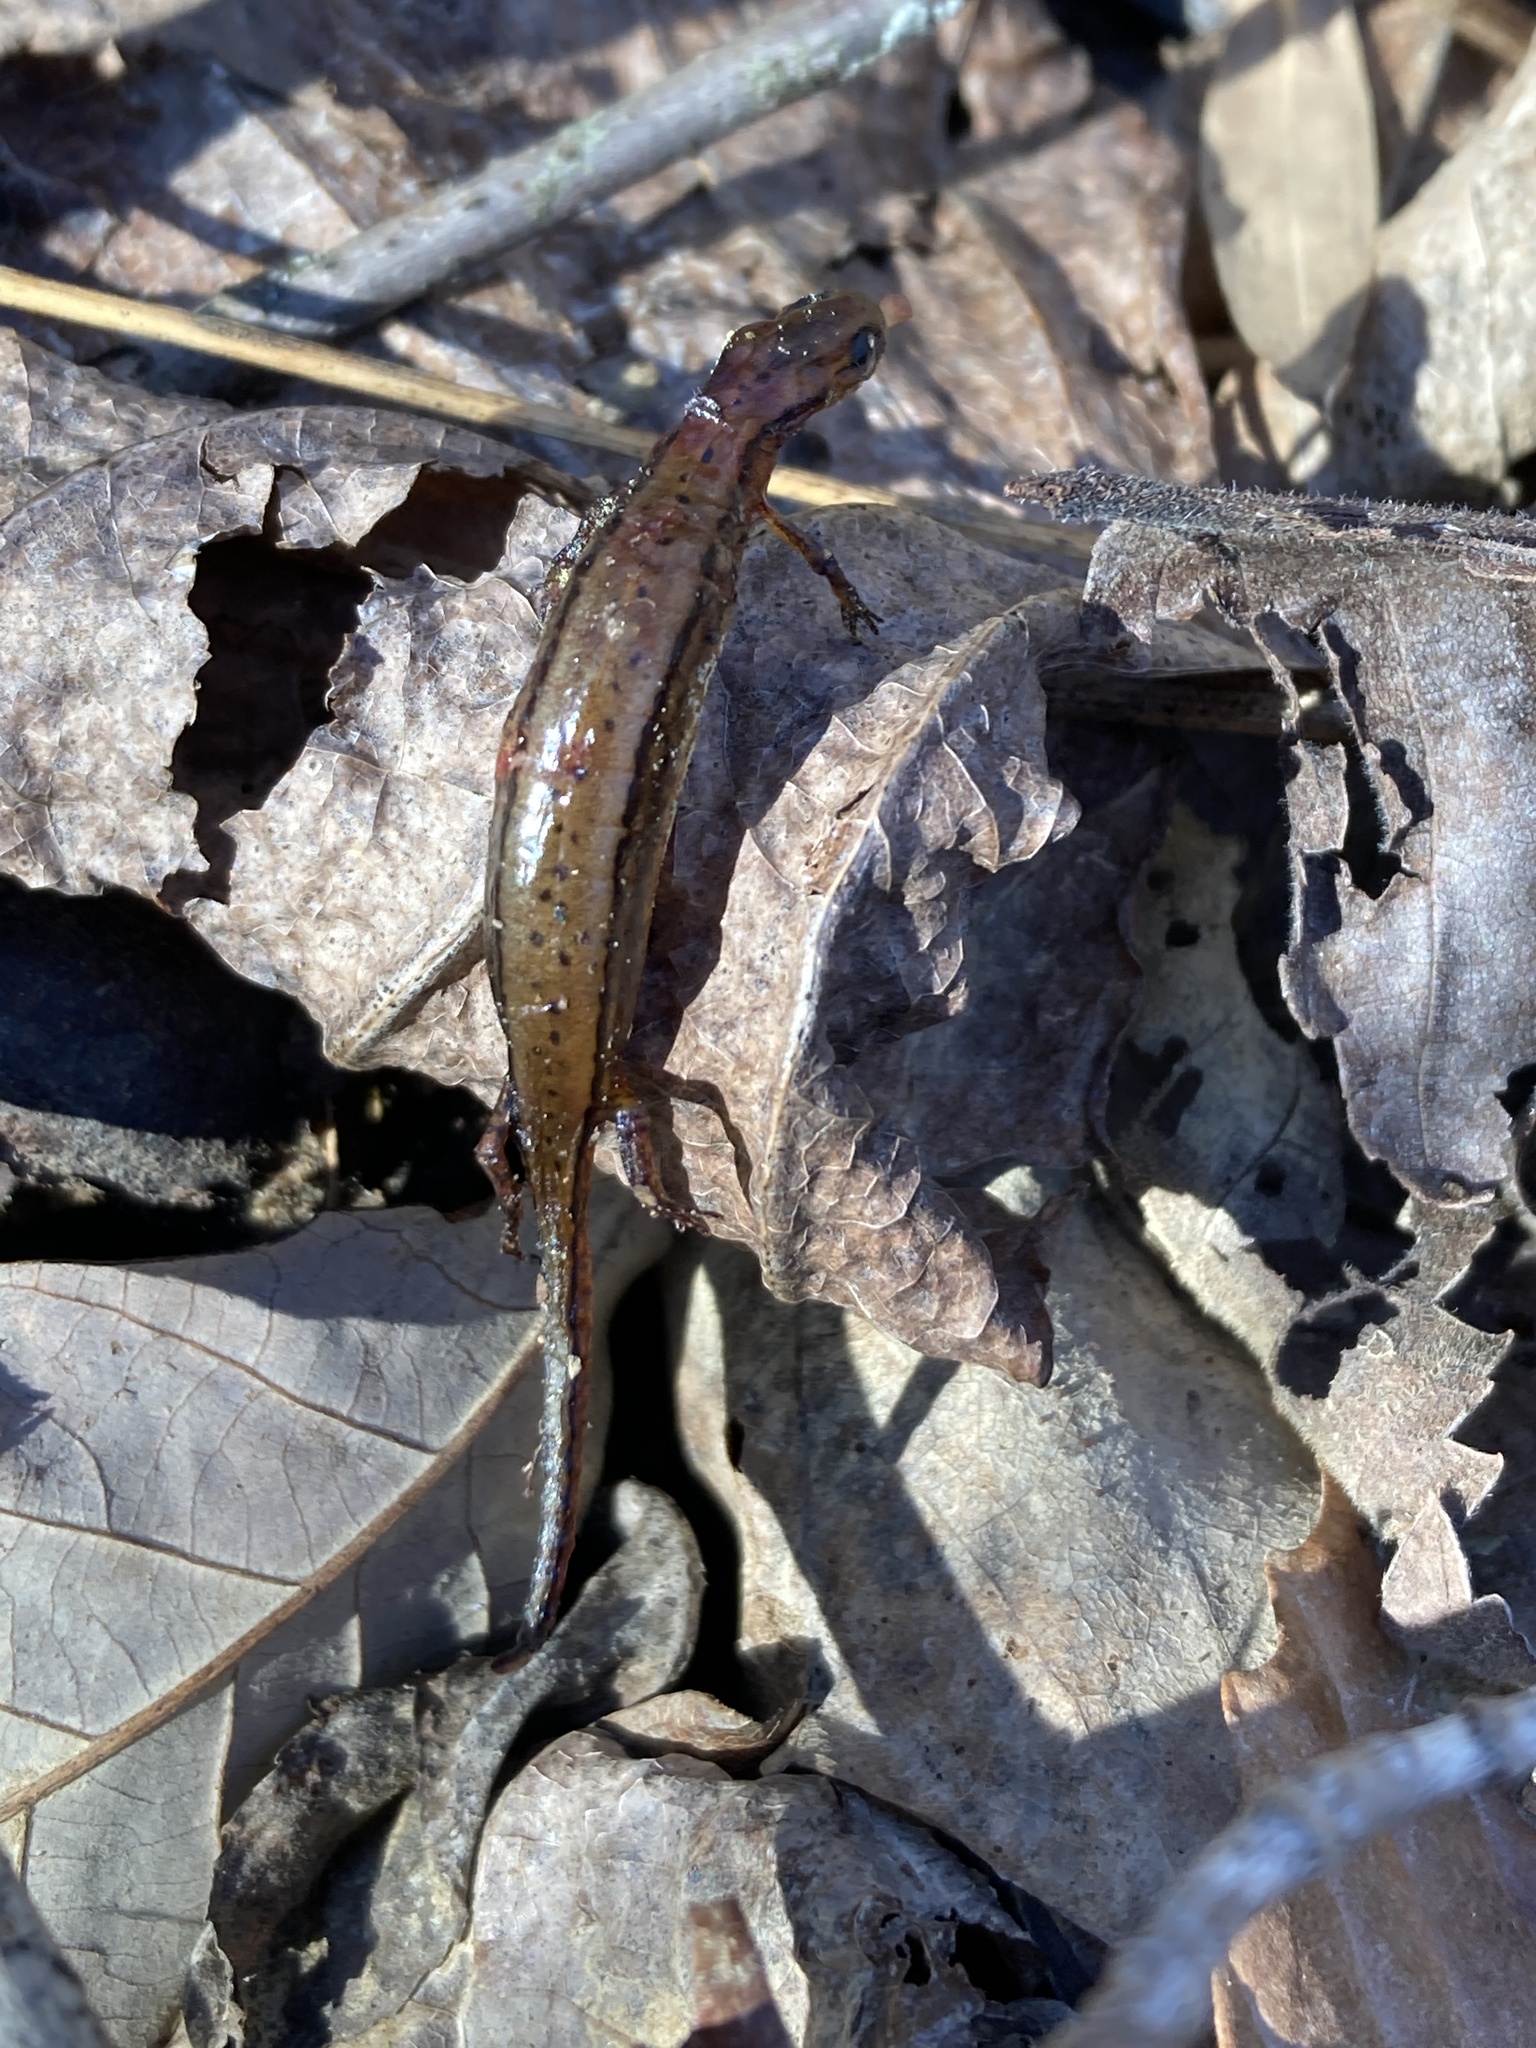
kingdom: Animalia
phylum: Chordata
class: Amphibia
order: Caudata
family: Plethodontidae
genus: Eurycea
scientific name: Eurycea cirrigera
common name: Southern two-lined salamander
